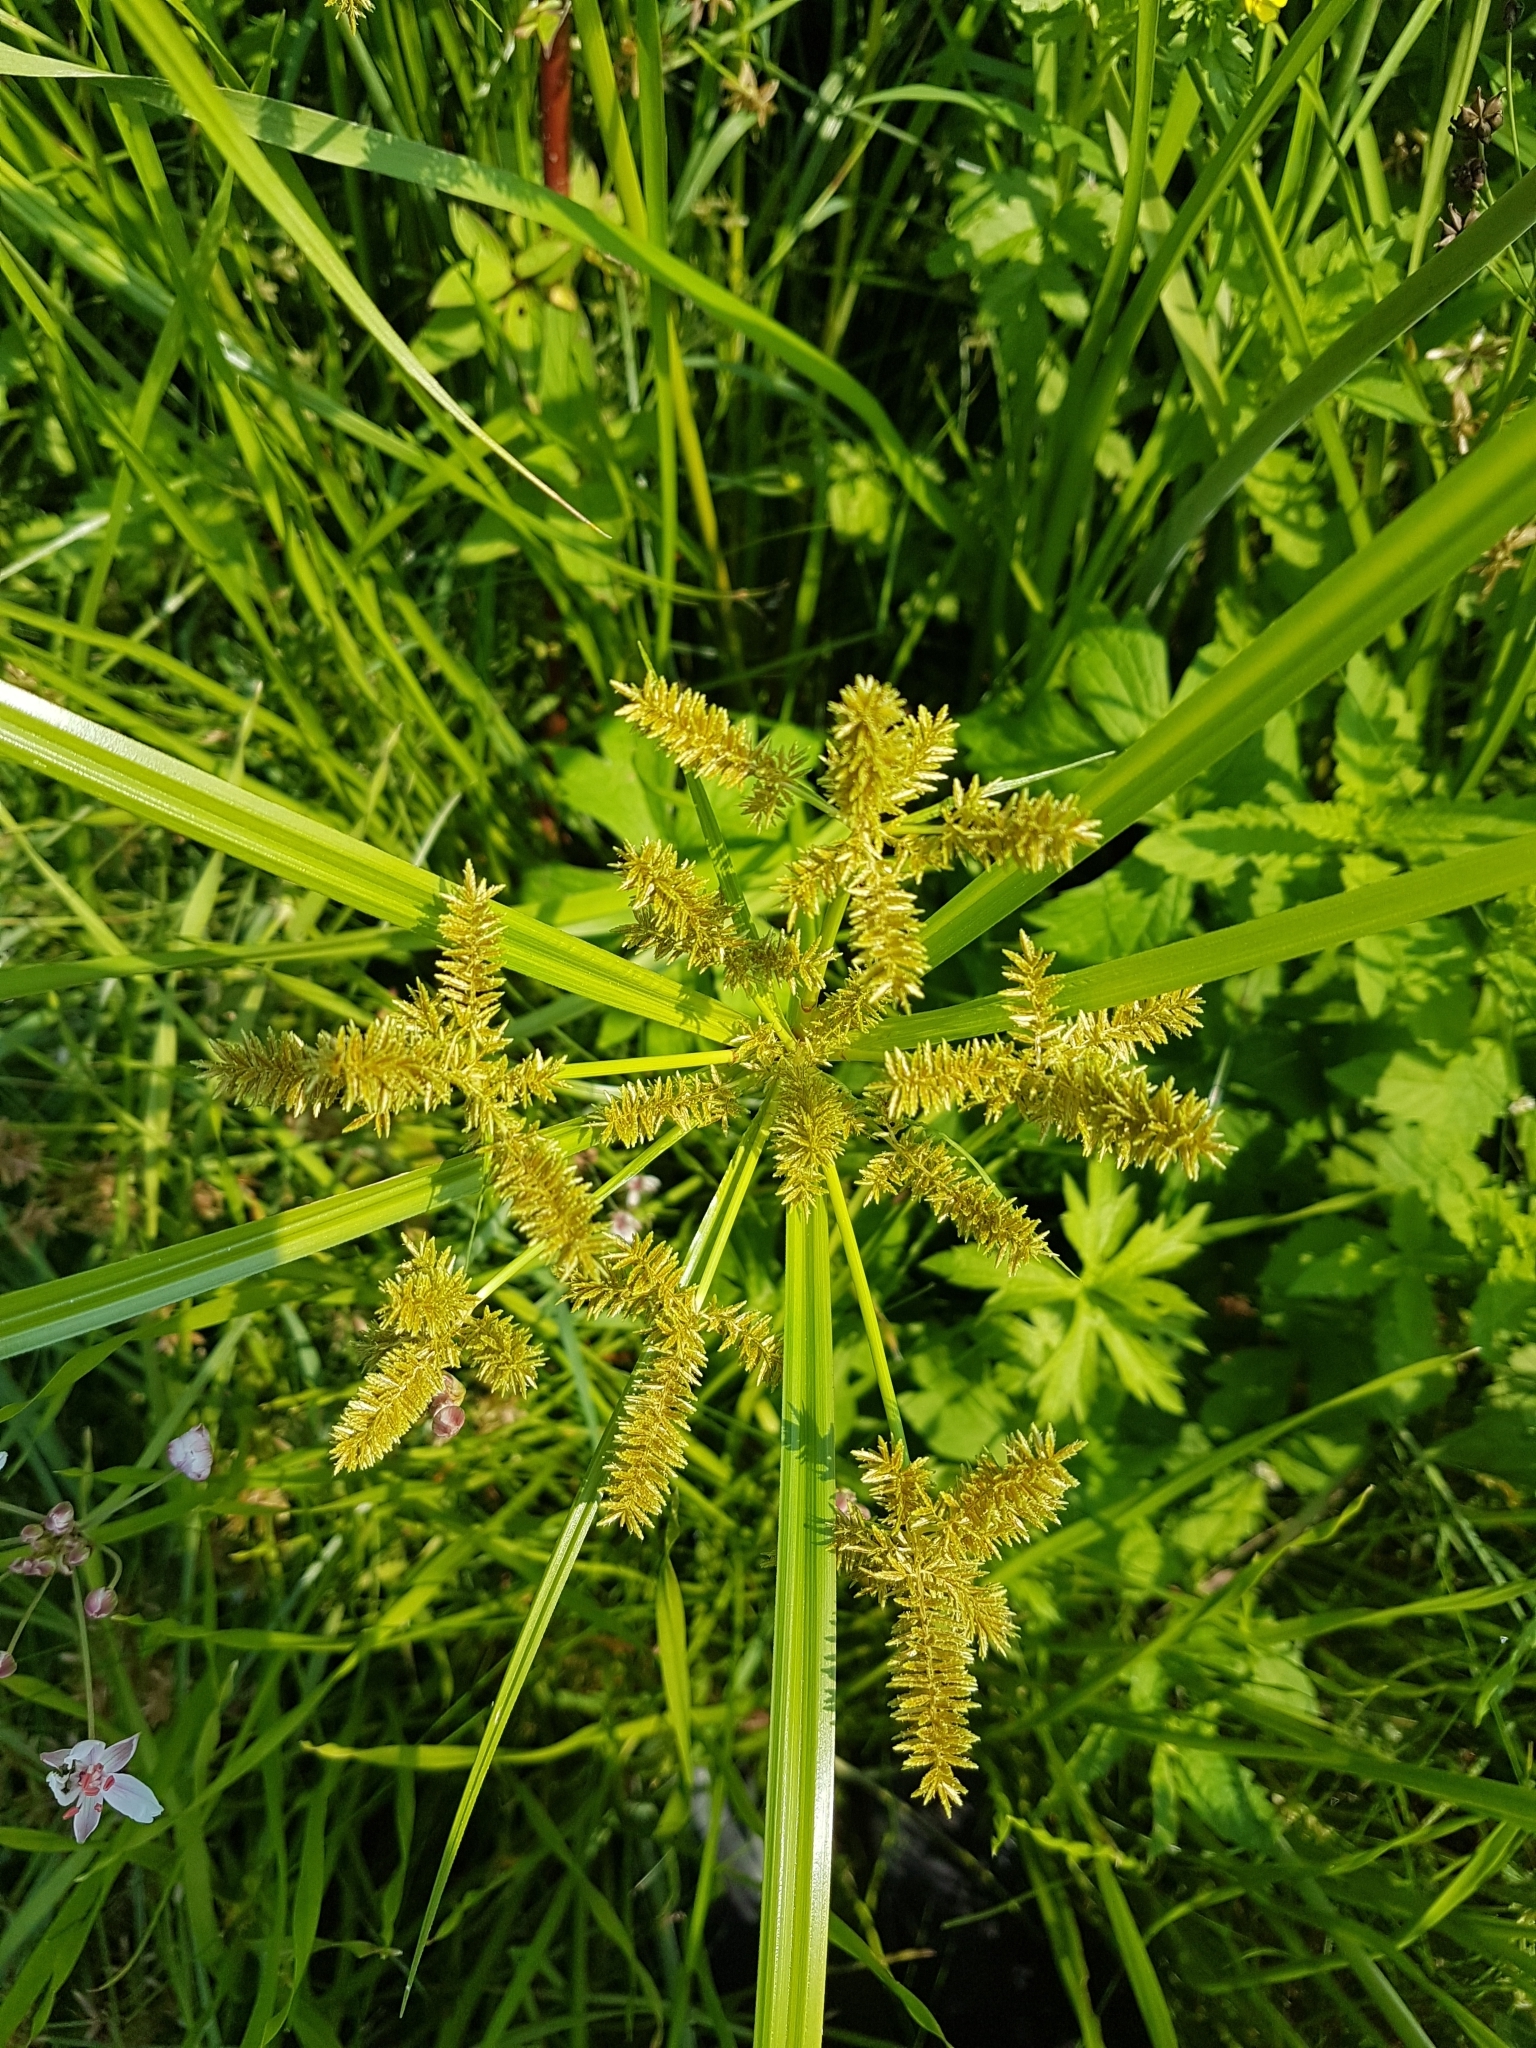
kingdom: Plantae
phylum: Tracheophyta
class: Liliopsida
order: Poales
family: Cyperaceae
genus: Cyperus
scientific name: Cyperus erythrorhizos
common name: Red-root flat sedge
